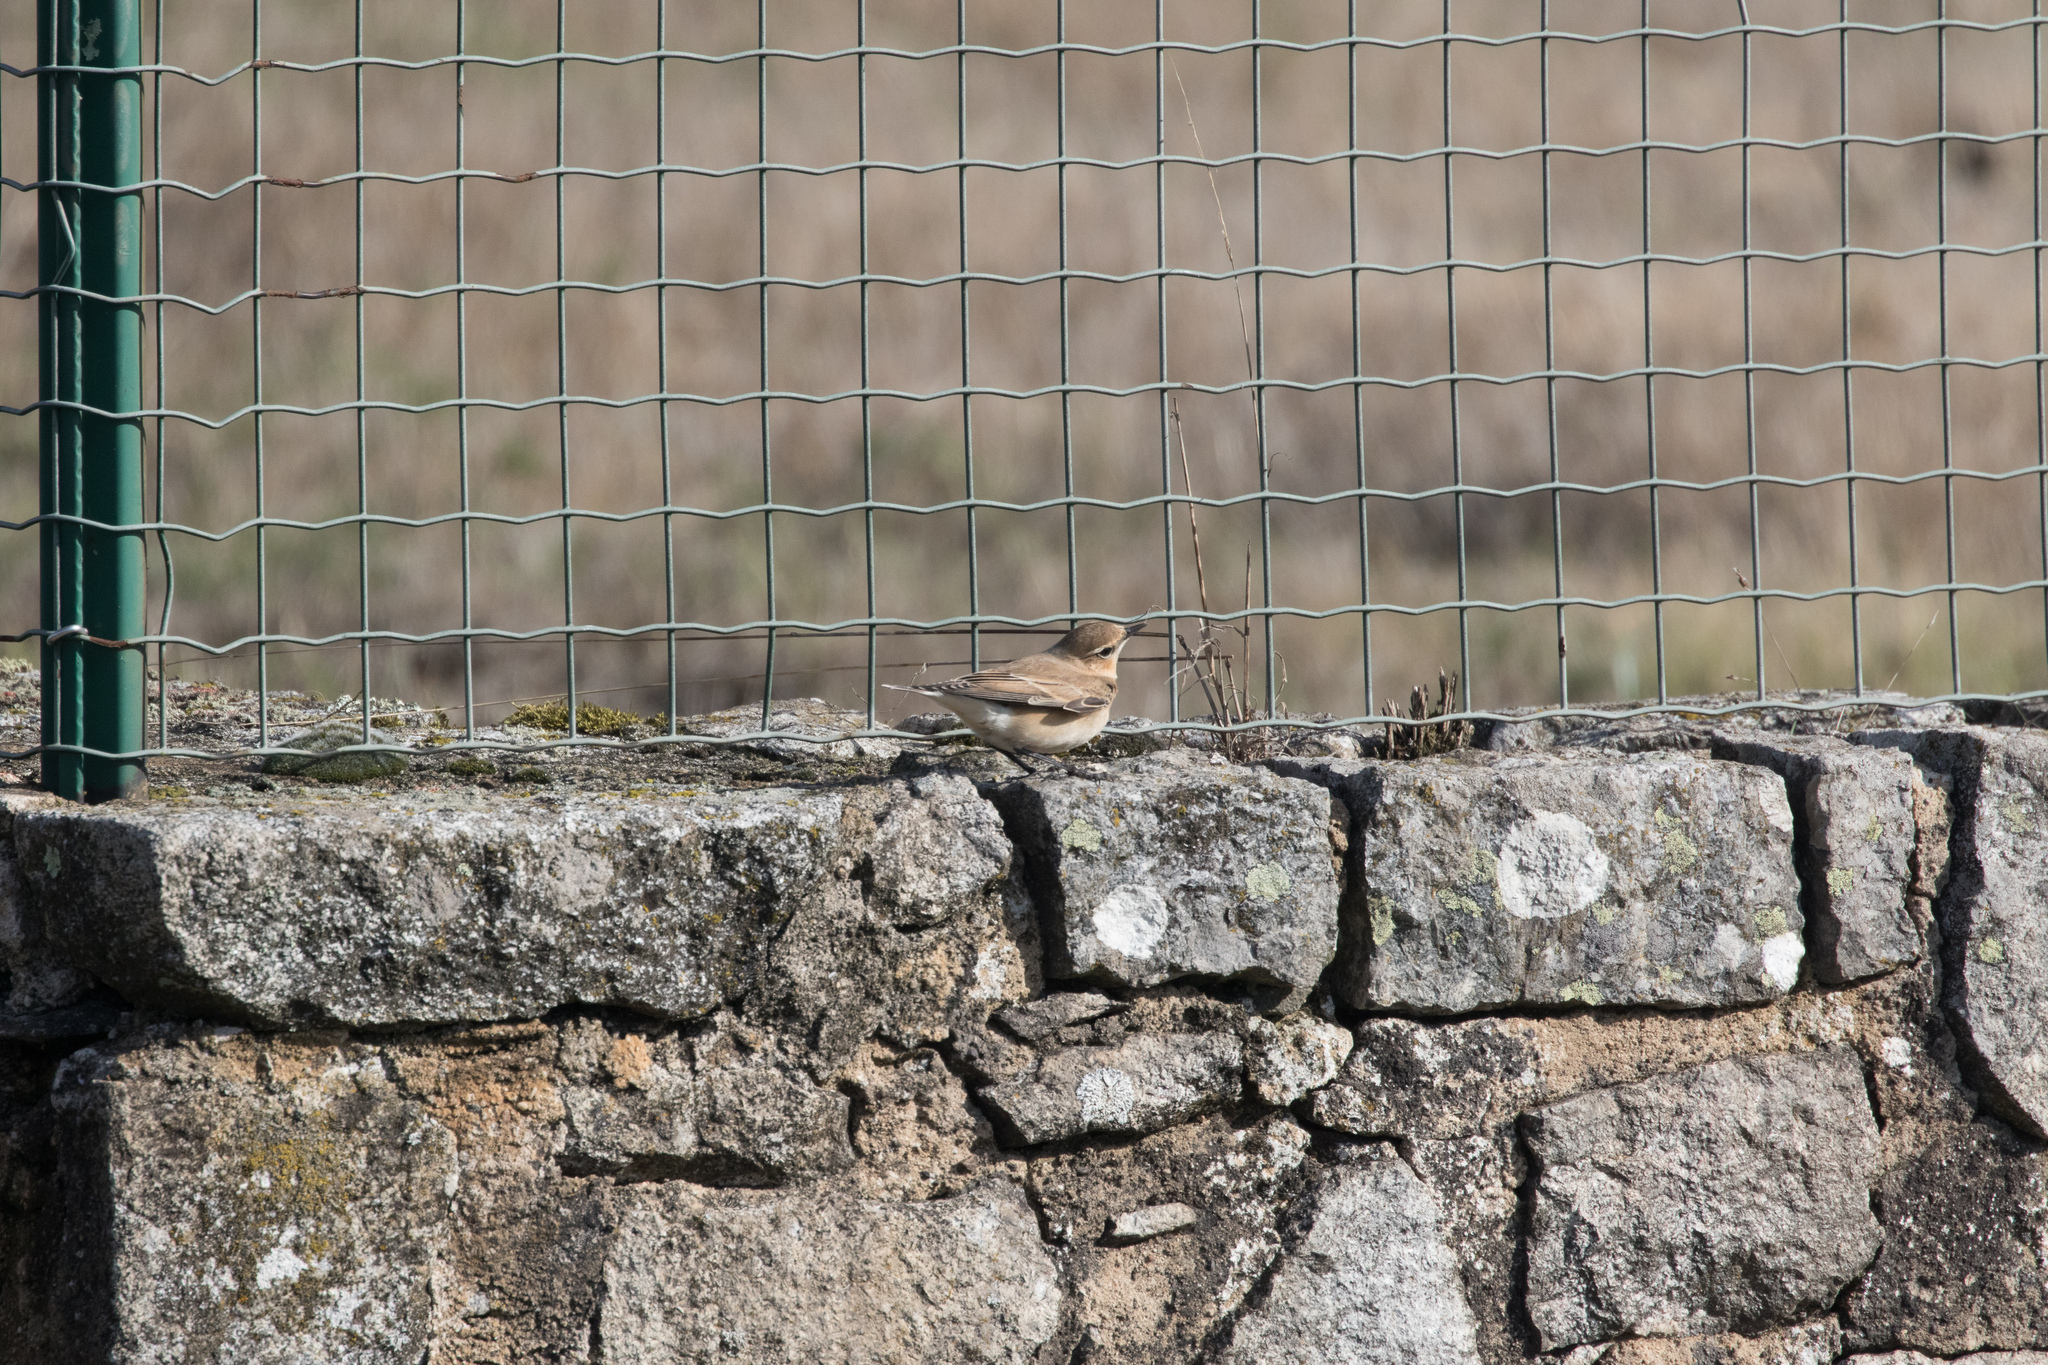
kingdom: Animalia
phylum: Chordata
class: Aves
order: Passeriformes
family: Muscicapidae
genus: Oenanthe
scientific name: Oenanthe oenanthe
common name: Northern wheatear
